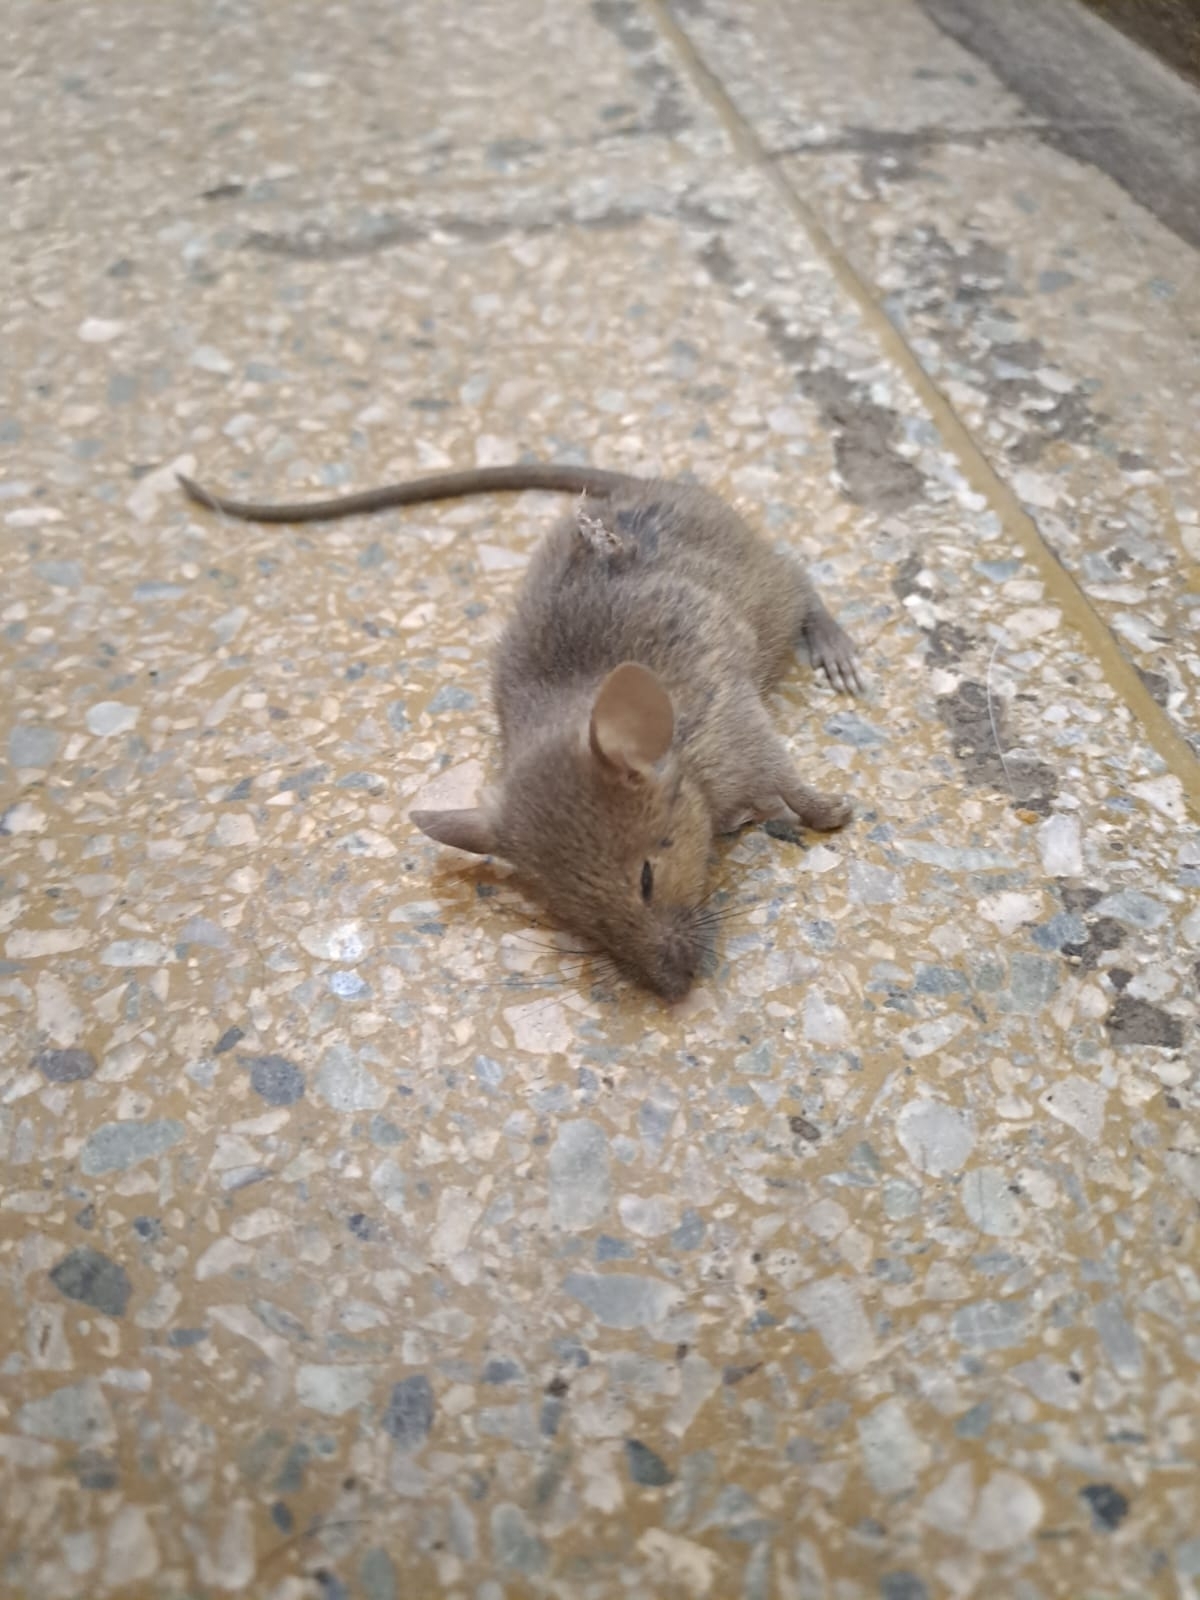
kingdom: Animalia
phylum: Chordata
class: Mammalia
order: Rodentia
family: Muridae
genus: Mus
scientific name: Mus musculus
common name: House mouse
